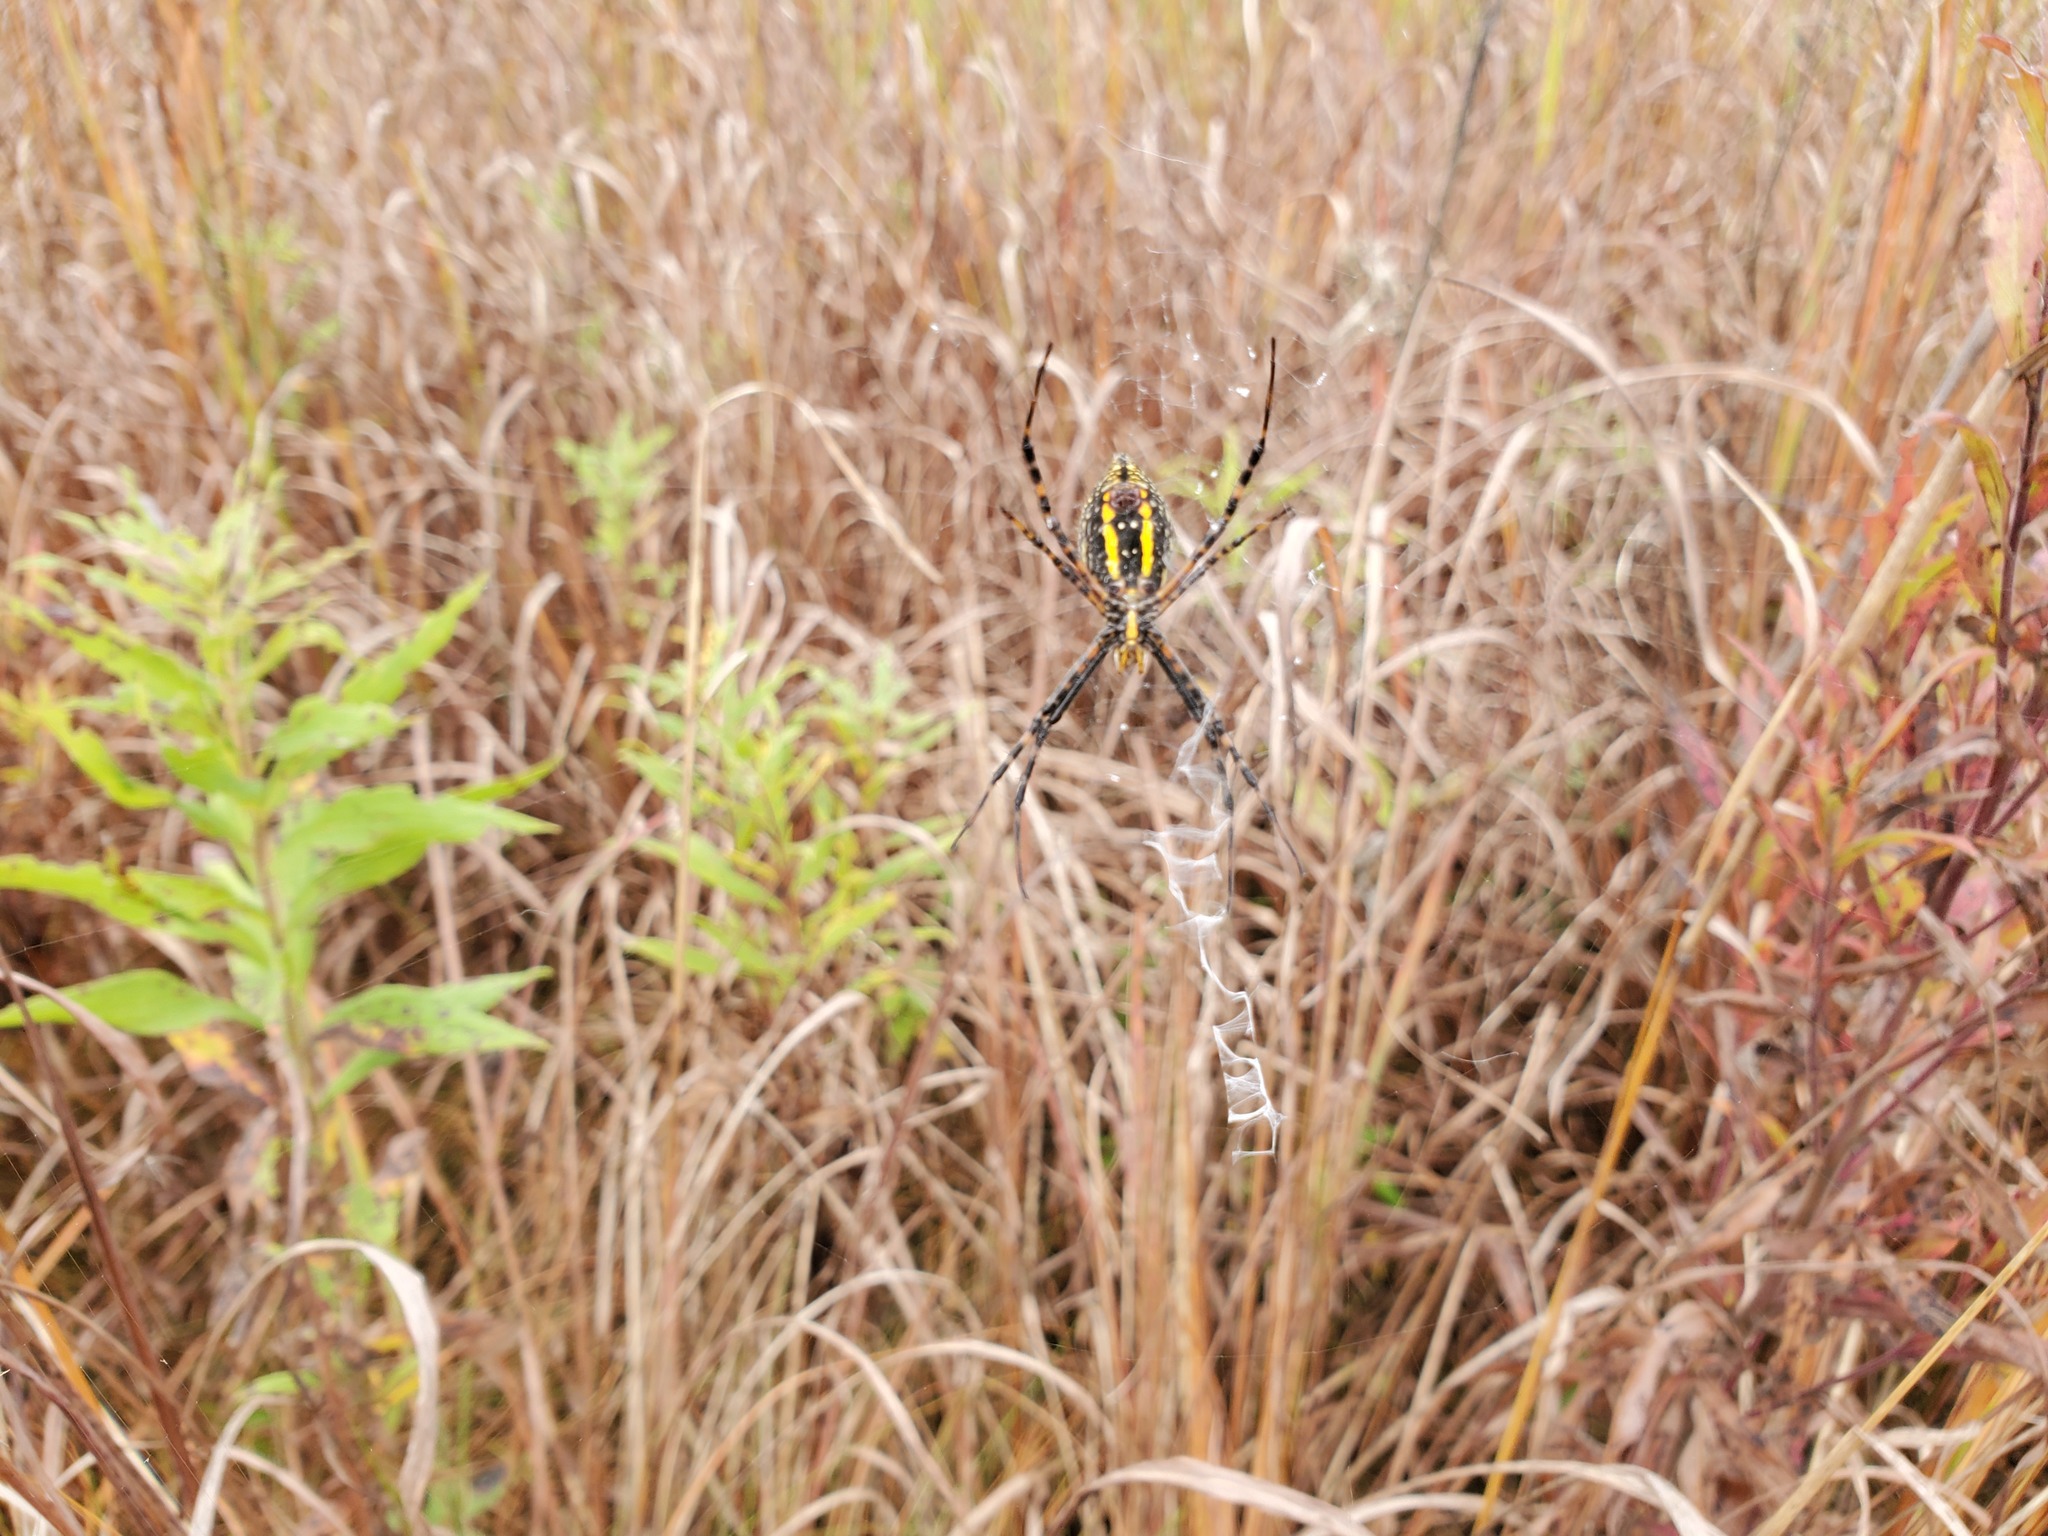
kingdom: Animalia
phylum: Arthropoda
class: Arachnida
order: Araneae
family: Araneidae
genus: Argiope
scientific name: Argiope trifasciata
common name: Banded garden spider
